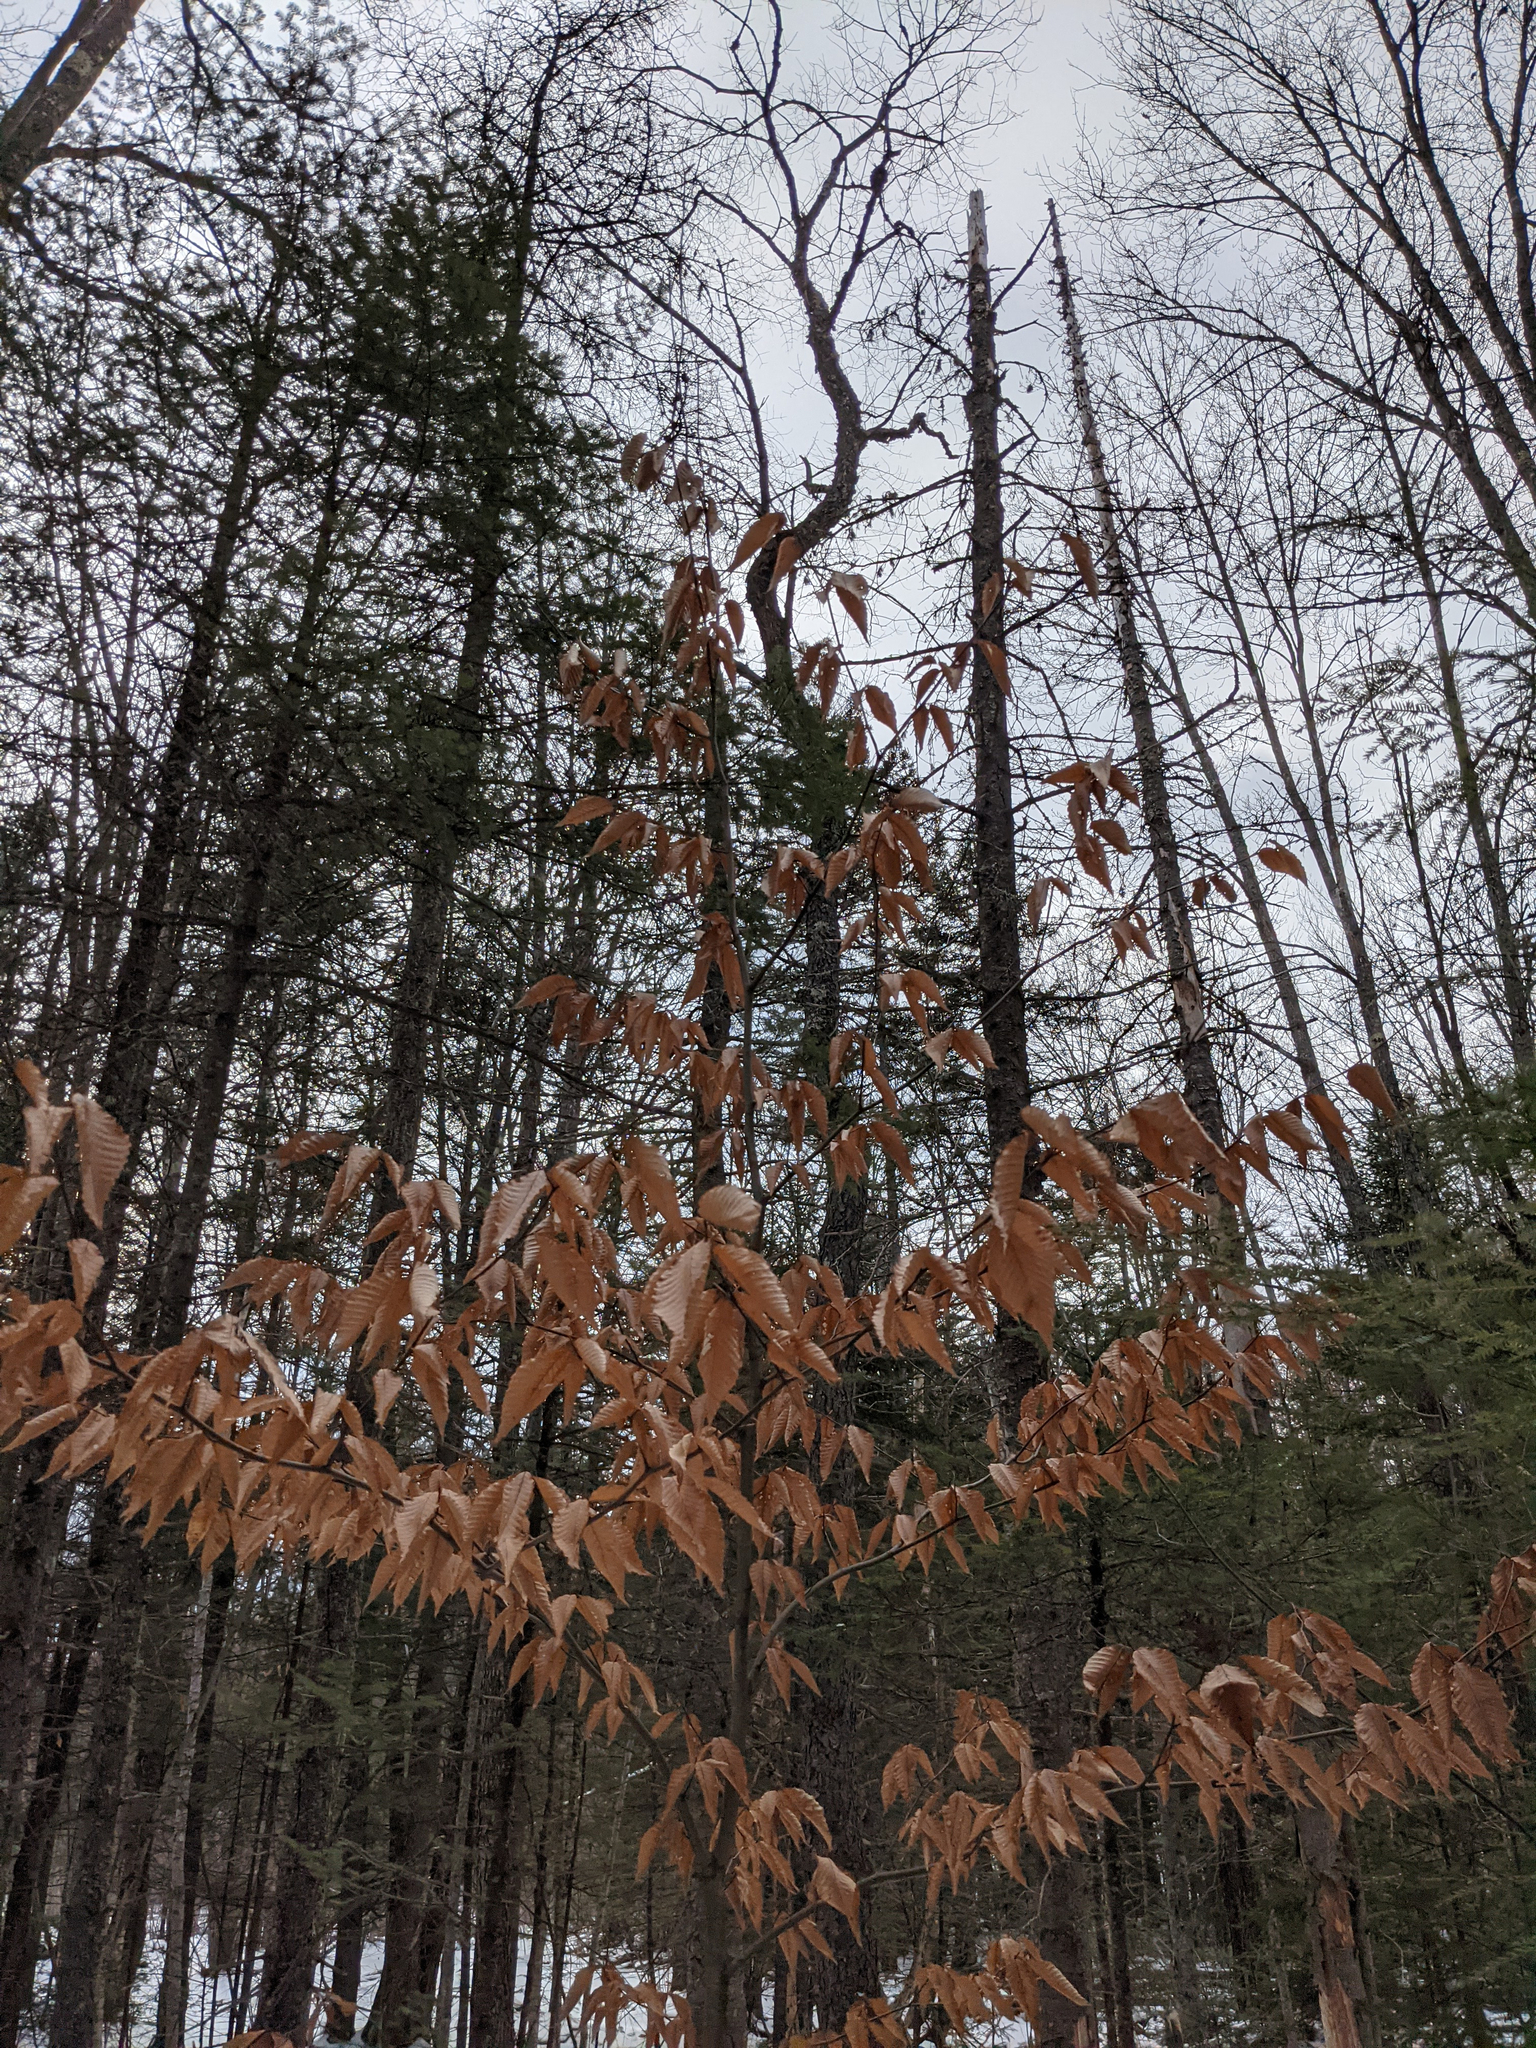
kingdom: Plantae
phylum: Tracheophyta
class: Magnoliopsida
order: Fagales
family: Fagaceae
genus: Fagus
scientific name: Fagus grandifolia
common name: American beech
